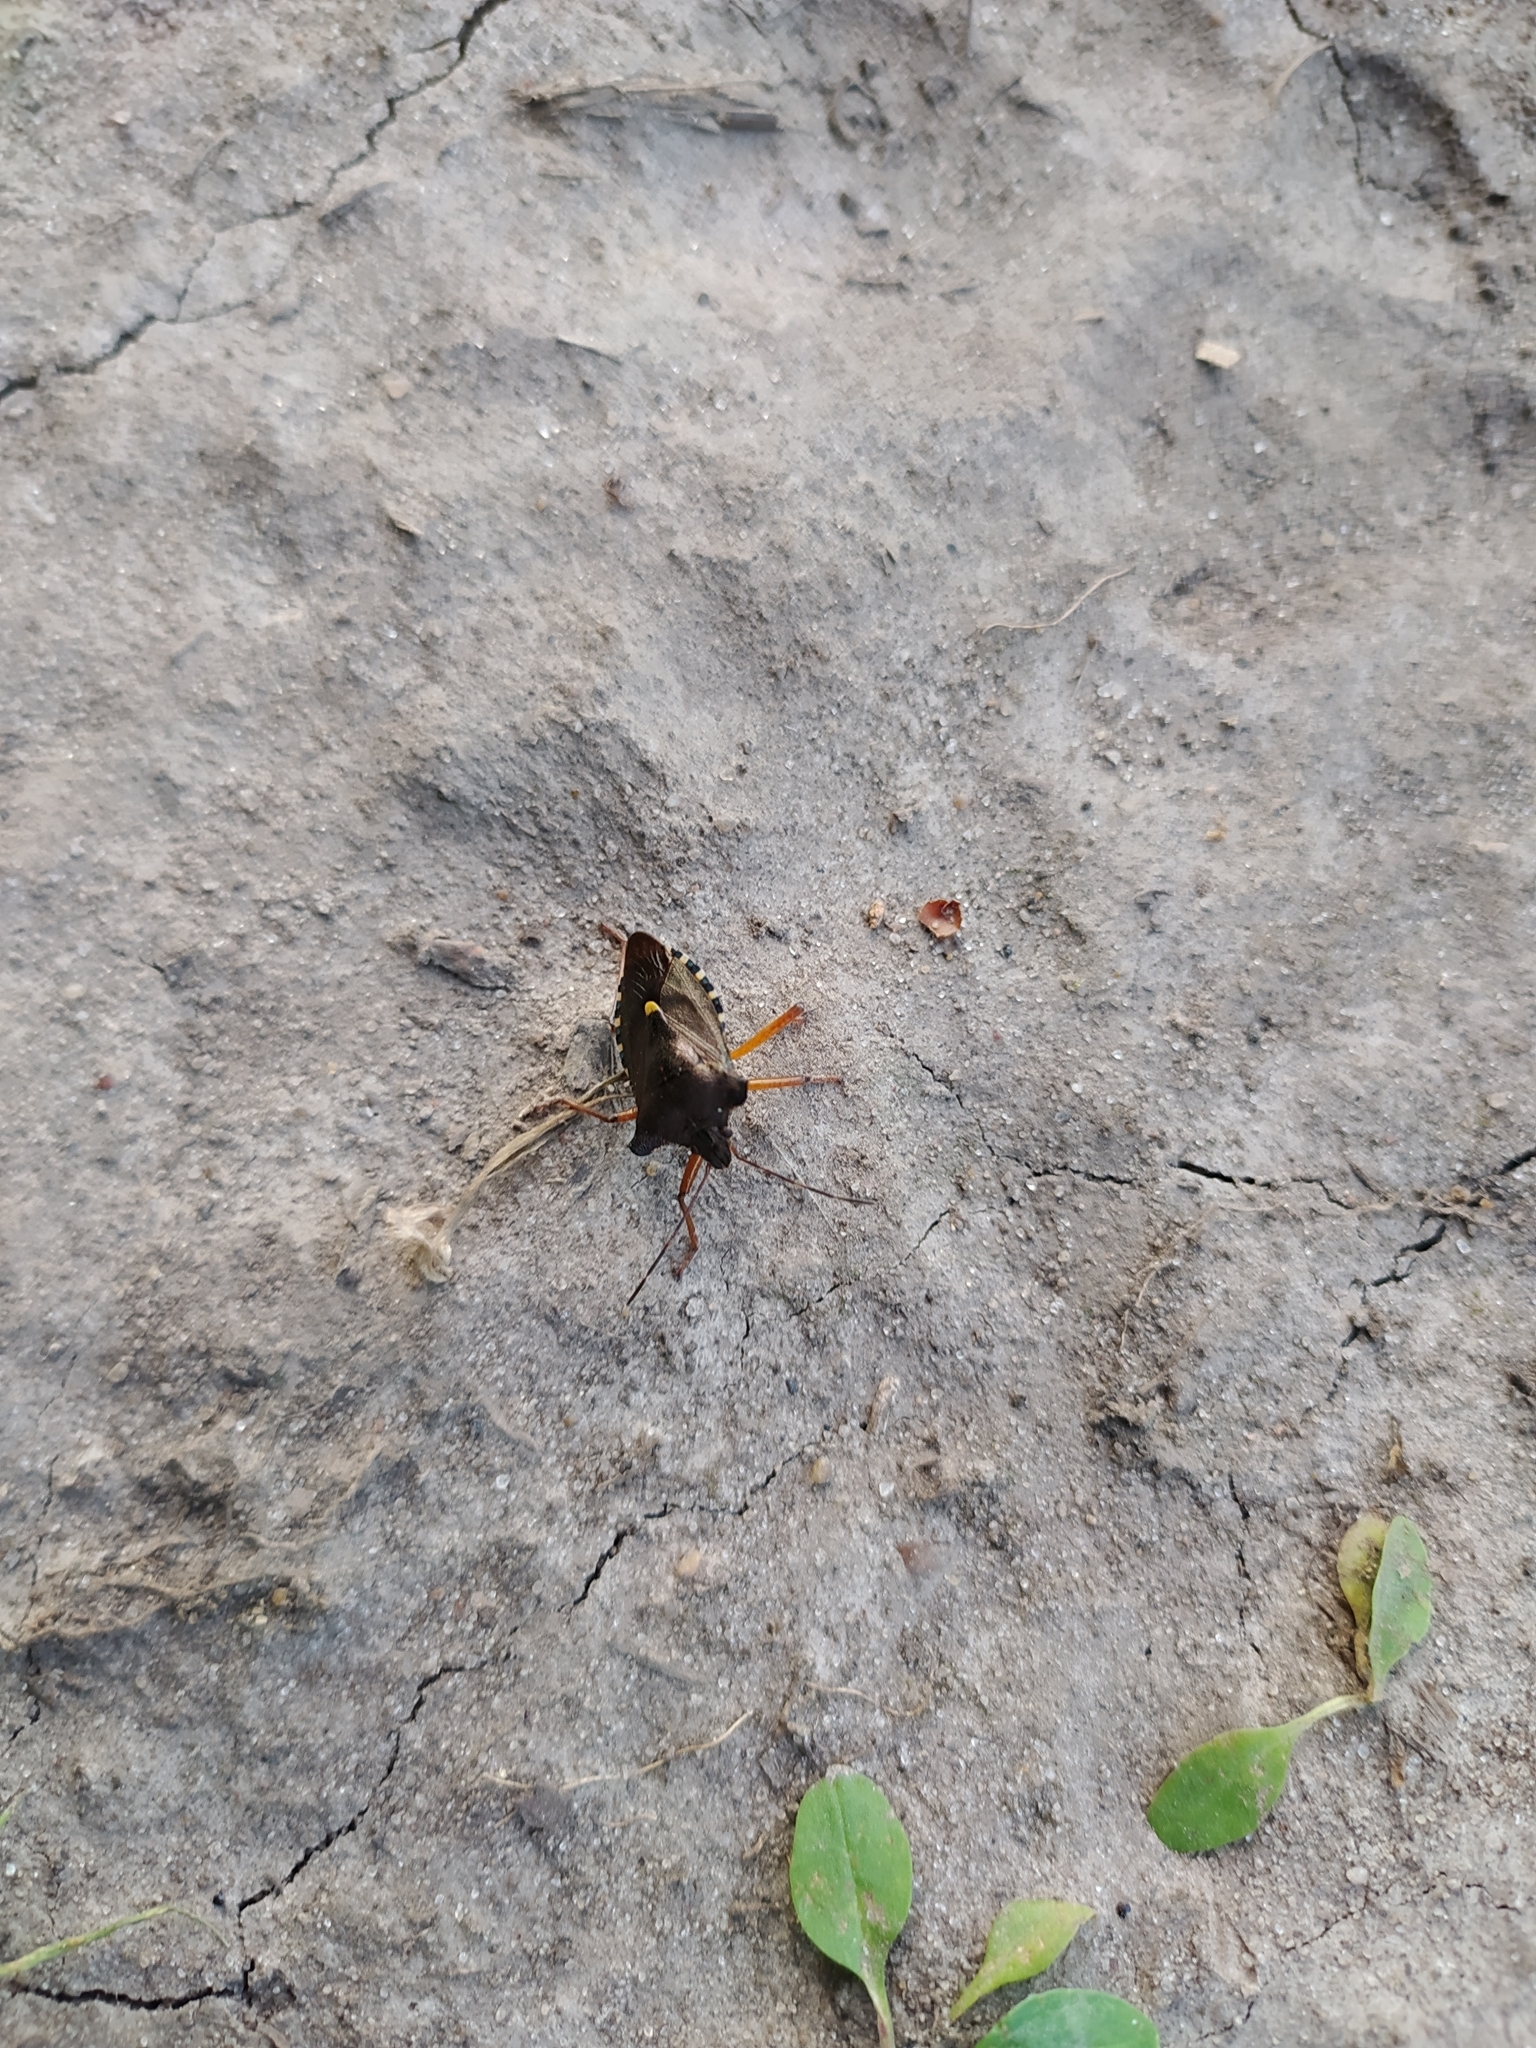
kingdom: Animalia
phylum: Arthropoda
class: Insecta
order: Hemiptera
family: Pentatomidae
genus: Pentatoma
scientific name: Pentatoma rufipes
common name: Forest bug
